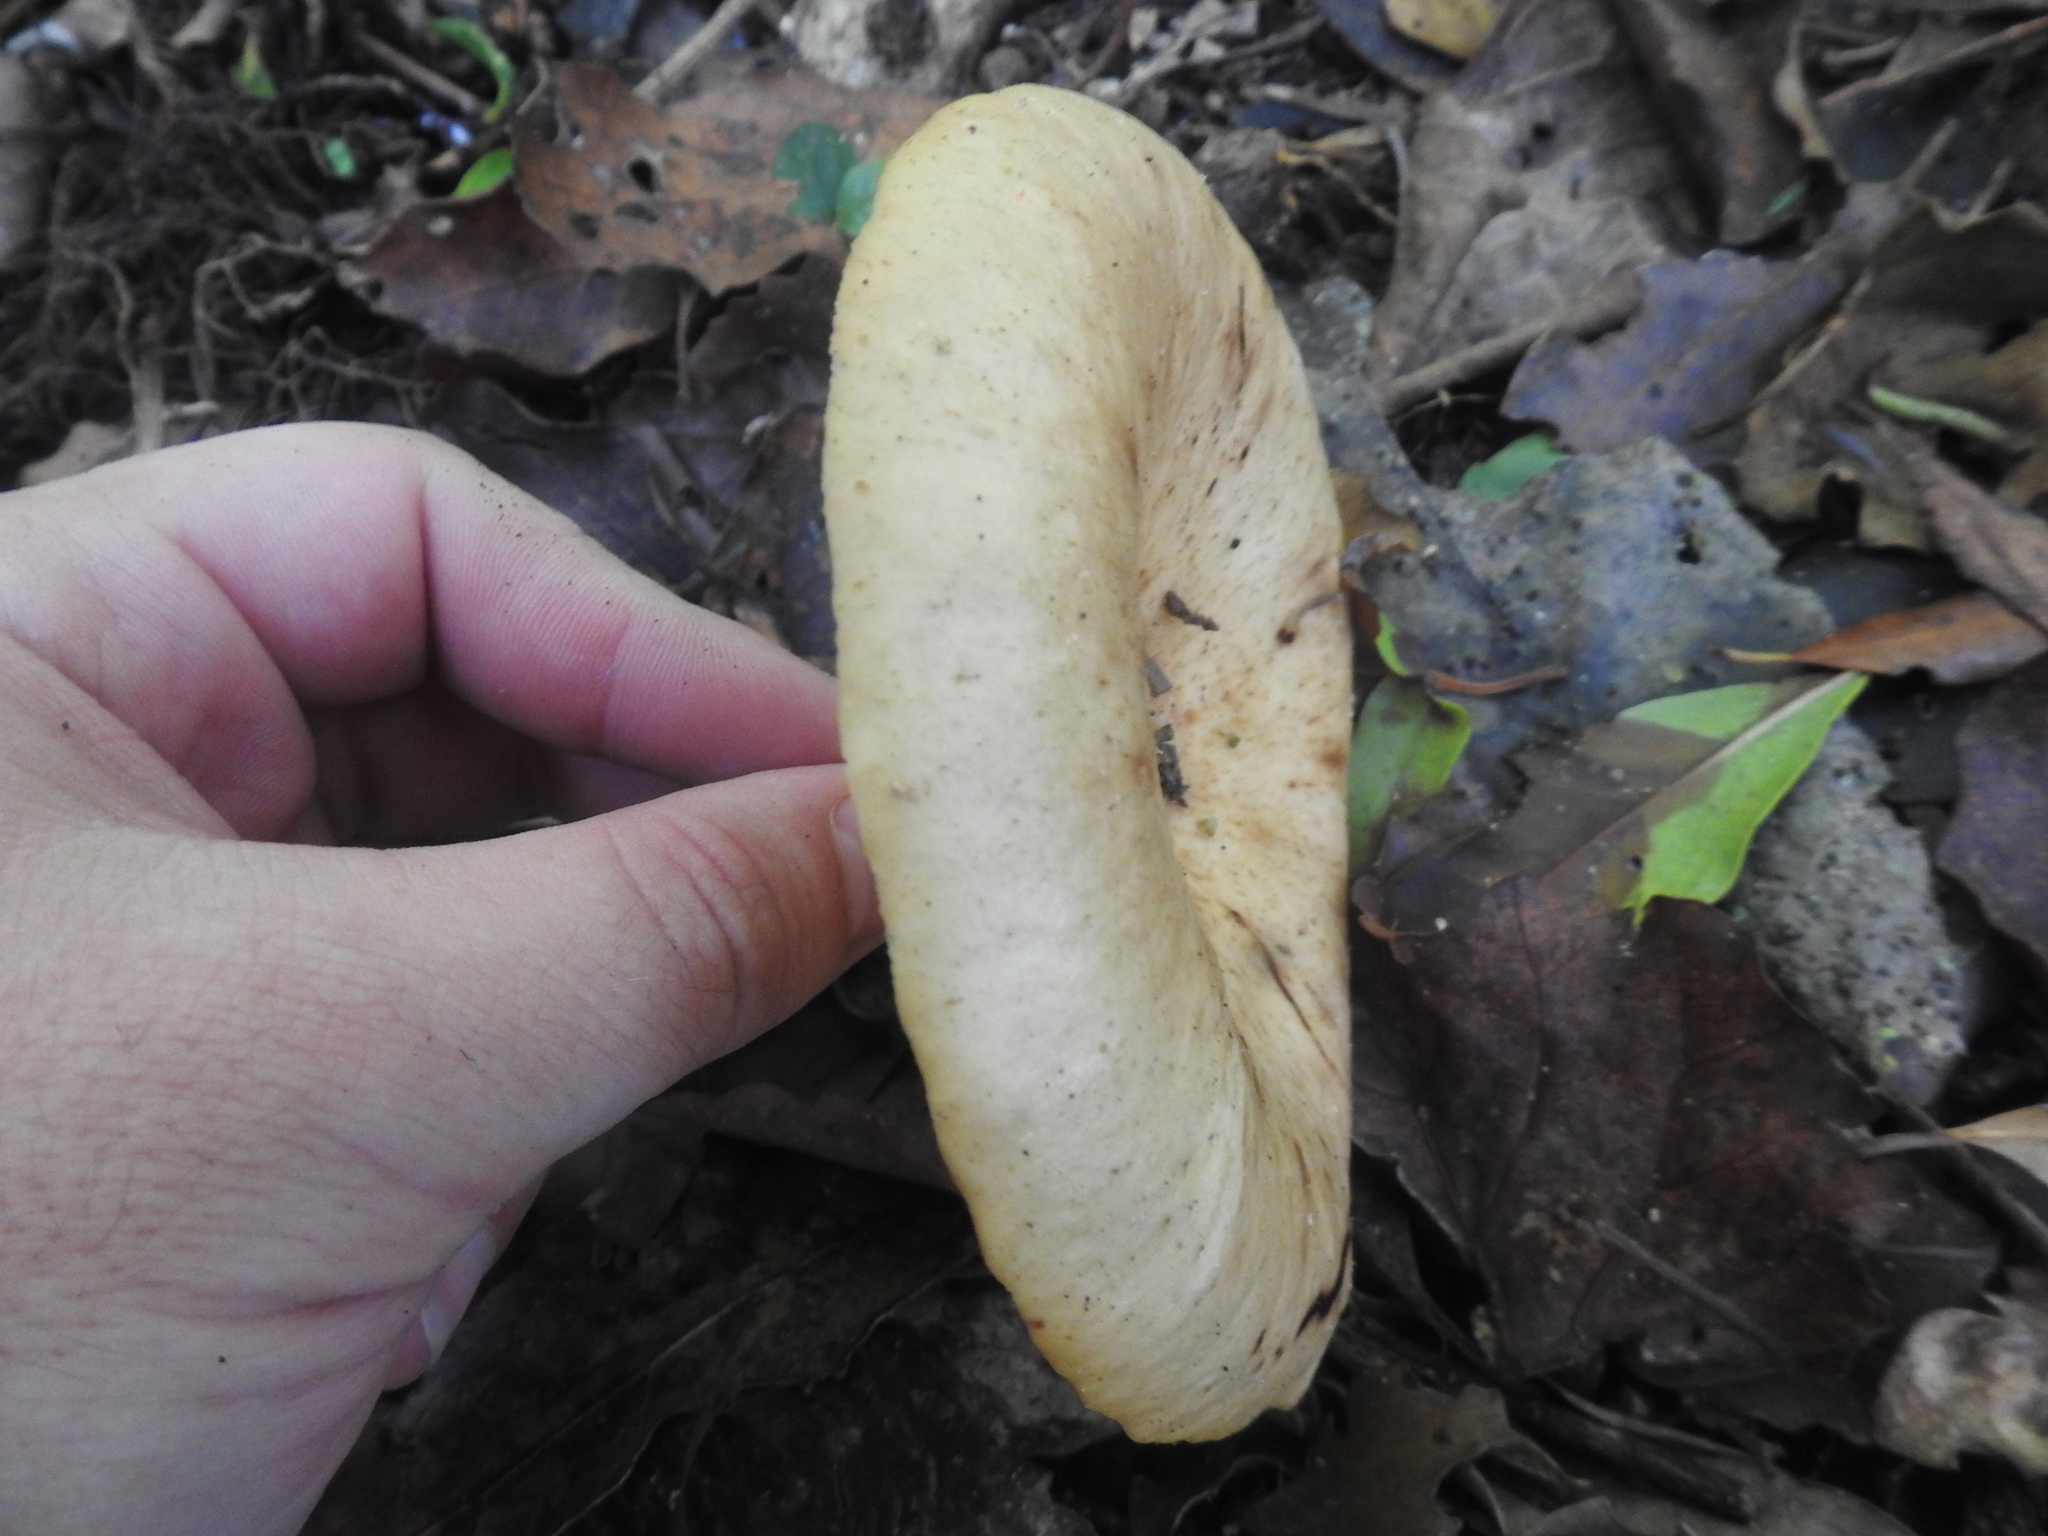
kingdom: Fungi
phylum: Basidiomycota
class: Agaricomycetes
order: Polyporales
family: Polyporaceae
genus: Lentinus
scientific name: Lentinus sajor-caju
